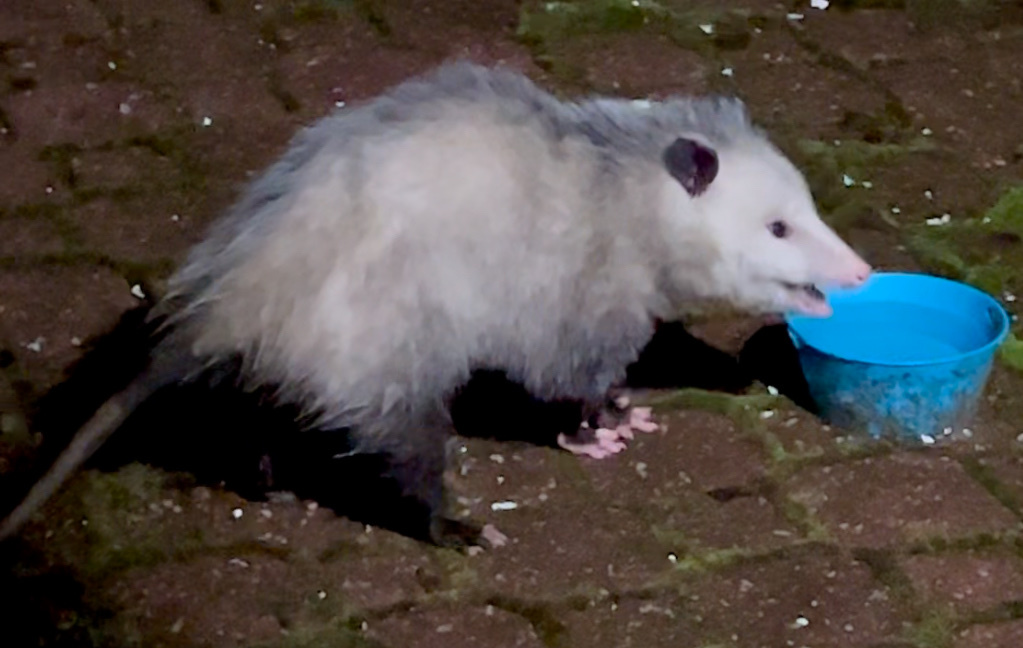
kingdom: Animalia
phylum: Chordata
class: Mammalia
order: Didelphimorphia
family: Didelphidae
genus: Didelphis
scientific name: Didelphis virginiana
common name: Virginia opossum
